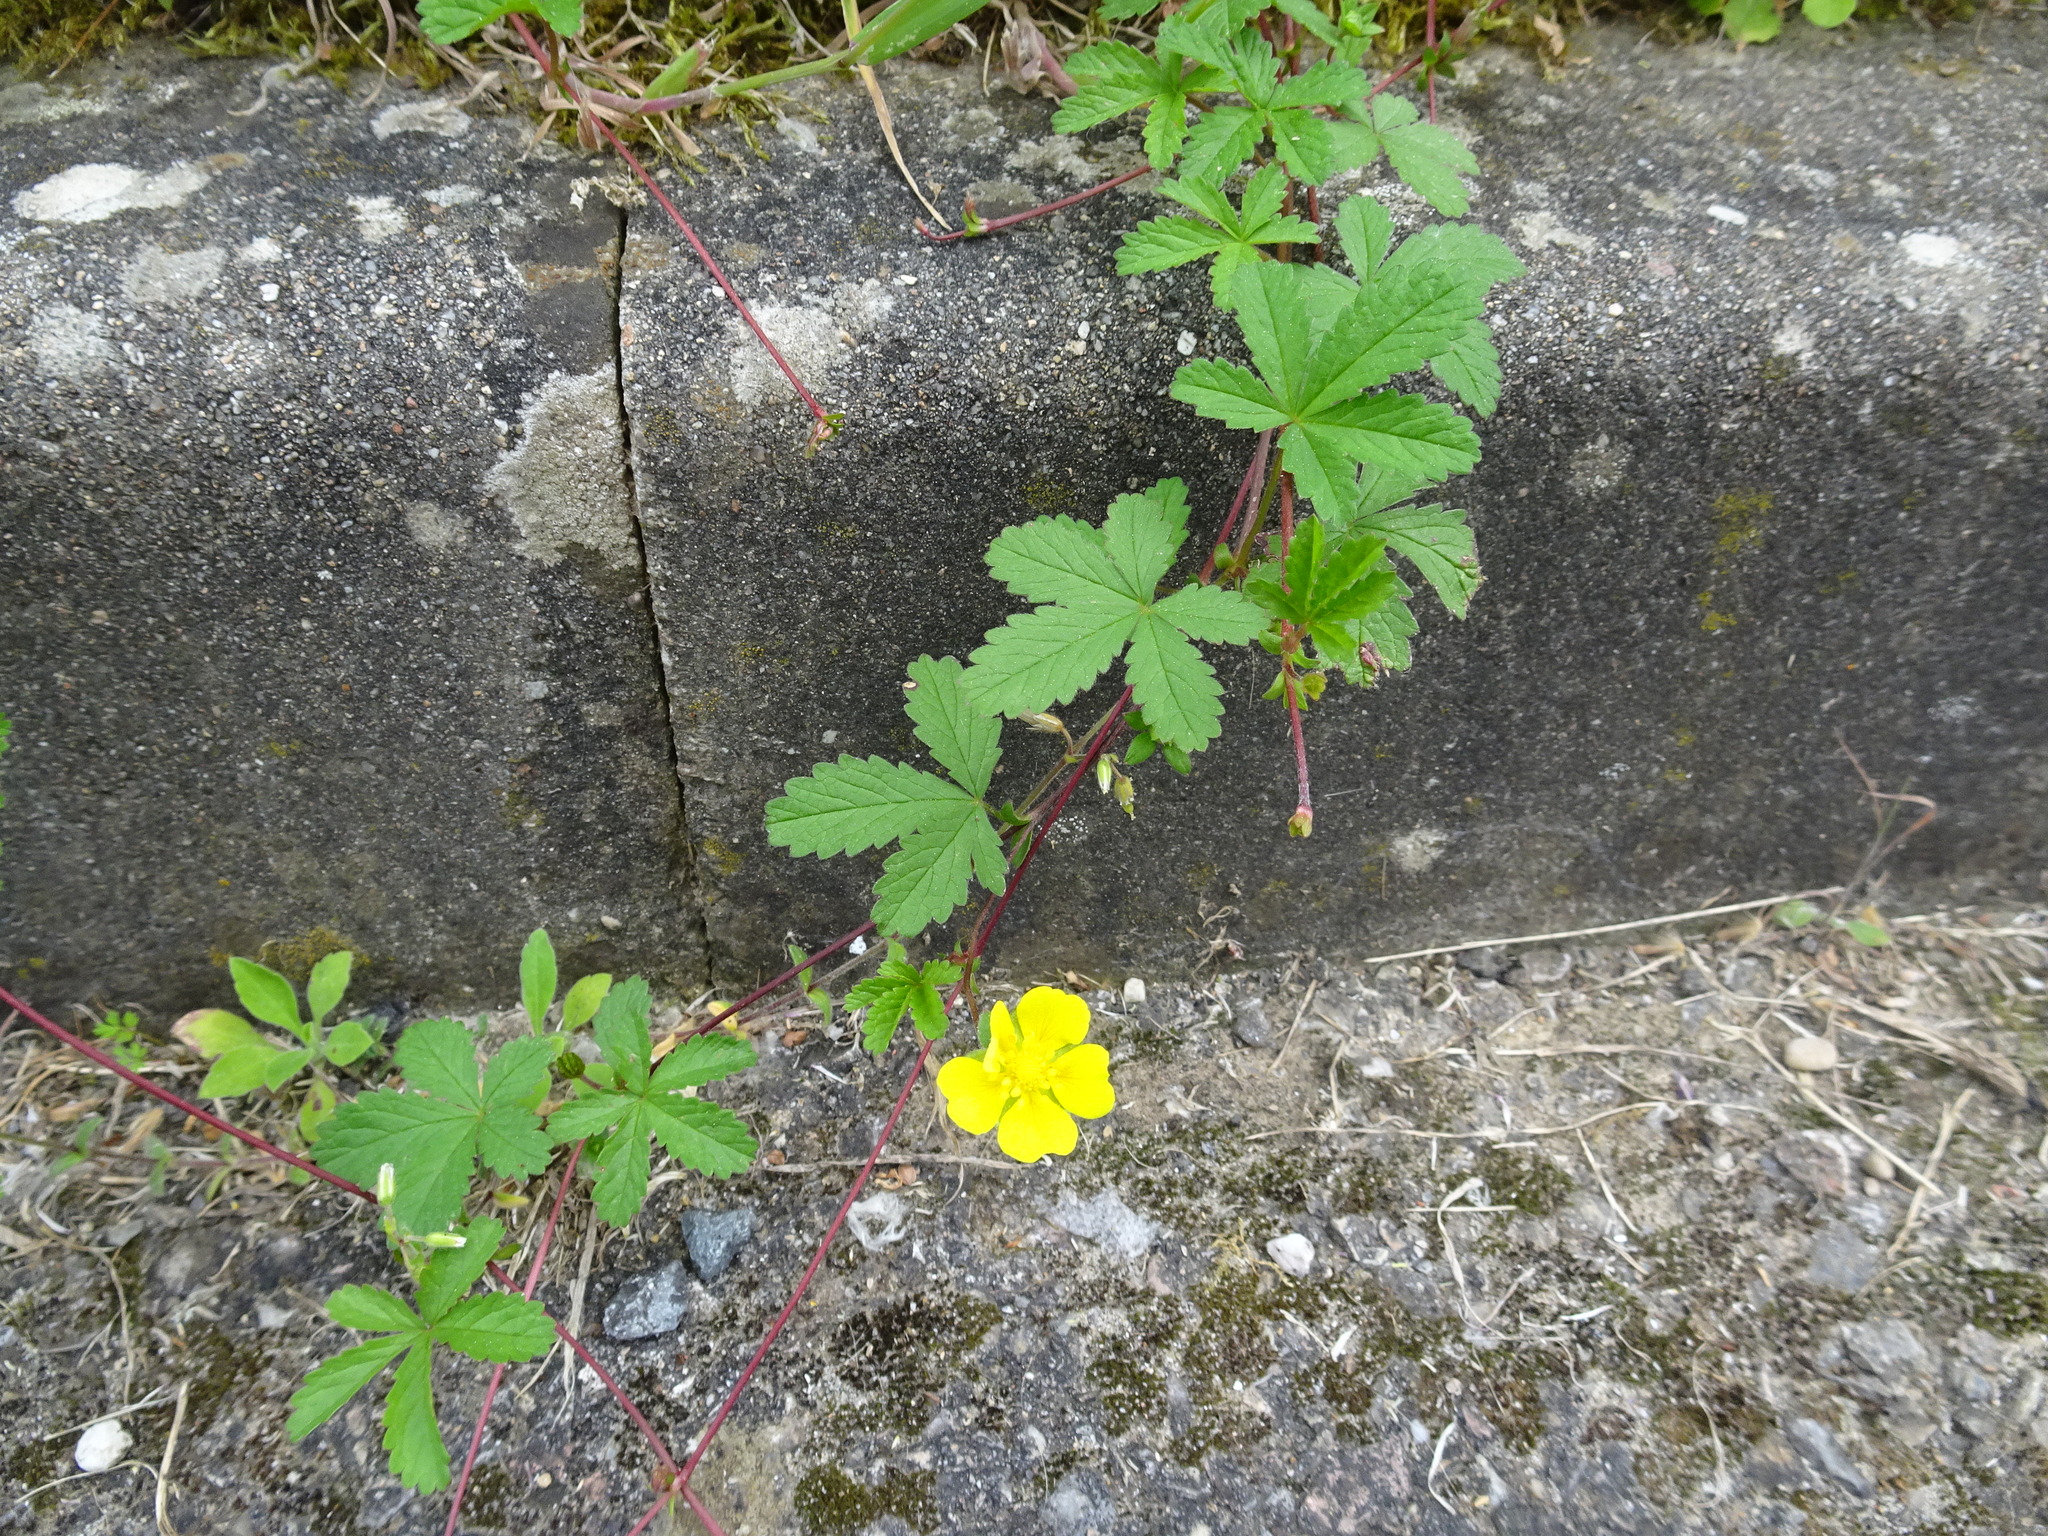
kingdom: Plantae
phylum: Tracheophyta
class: Magnoliopsida
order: Rosales
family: Rosaceae
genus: Potentilla
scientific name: Potentilla reptans
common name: Creeping cinquefoil
